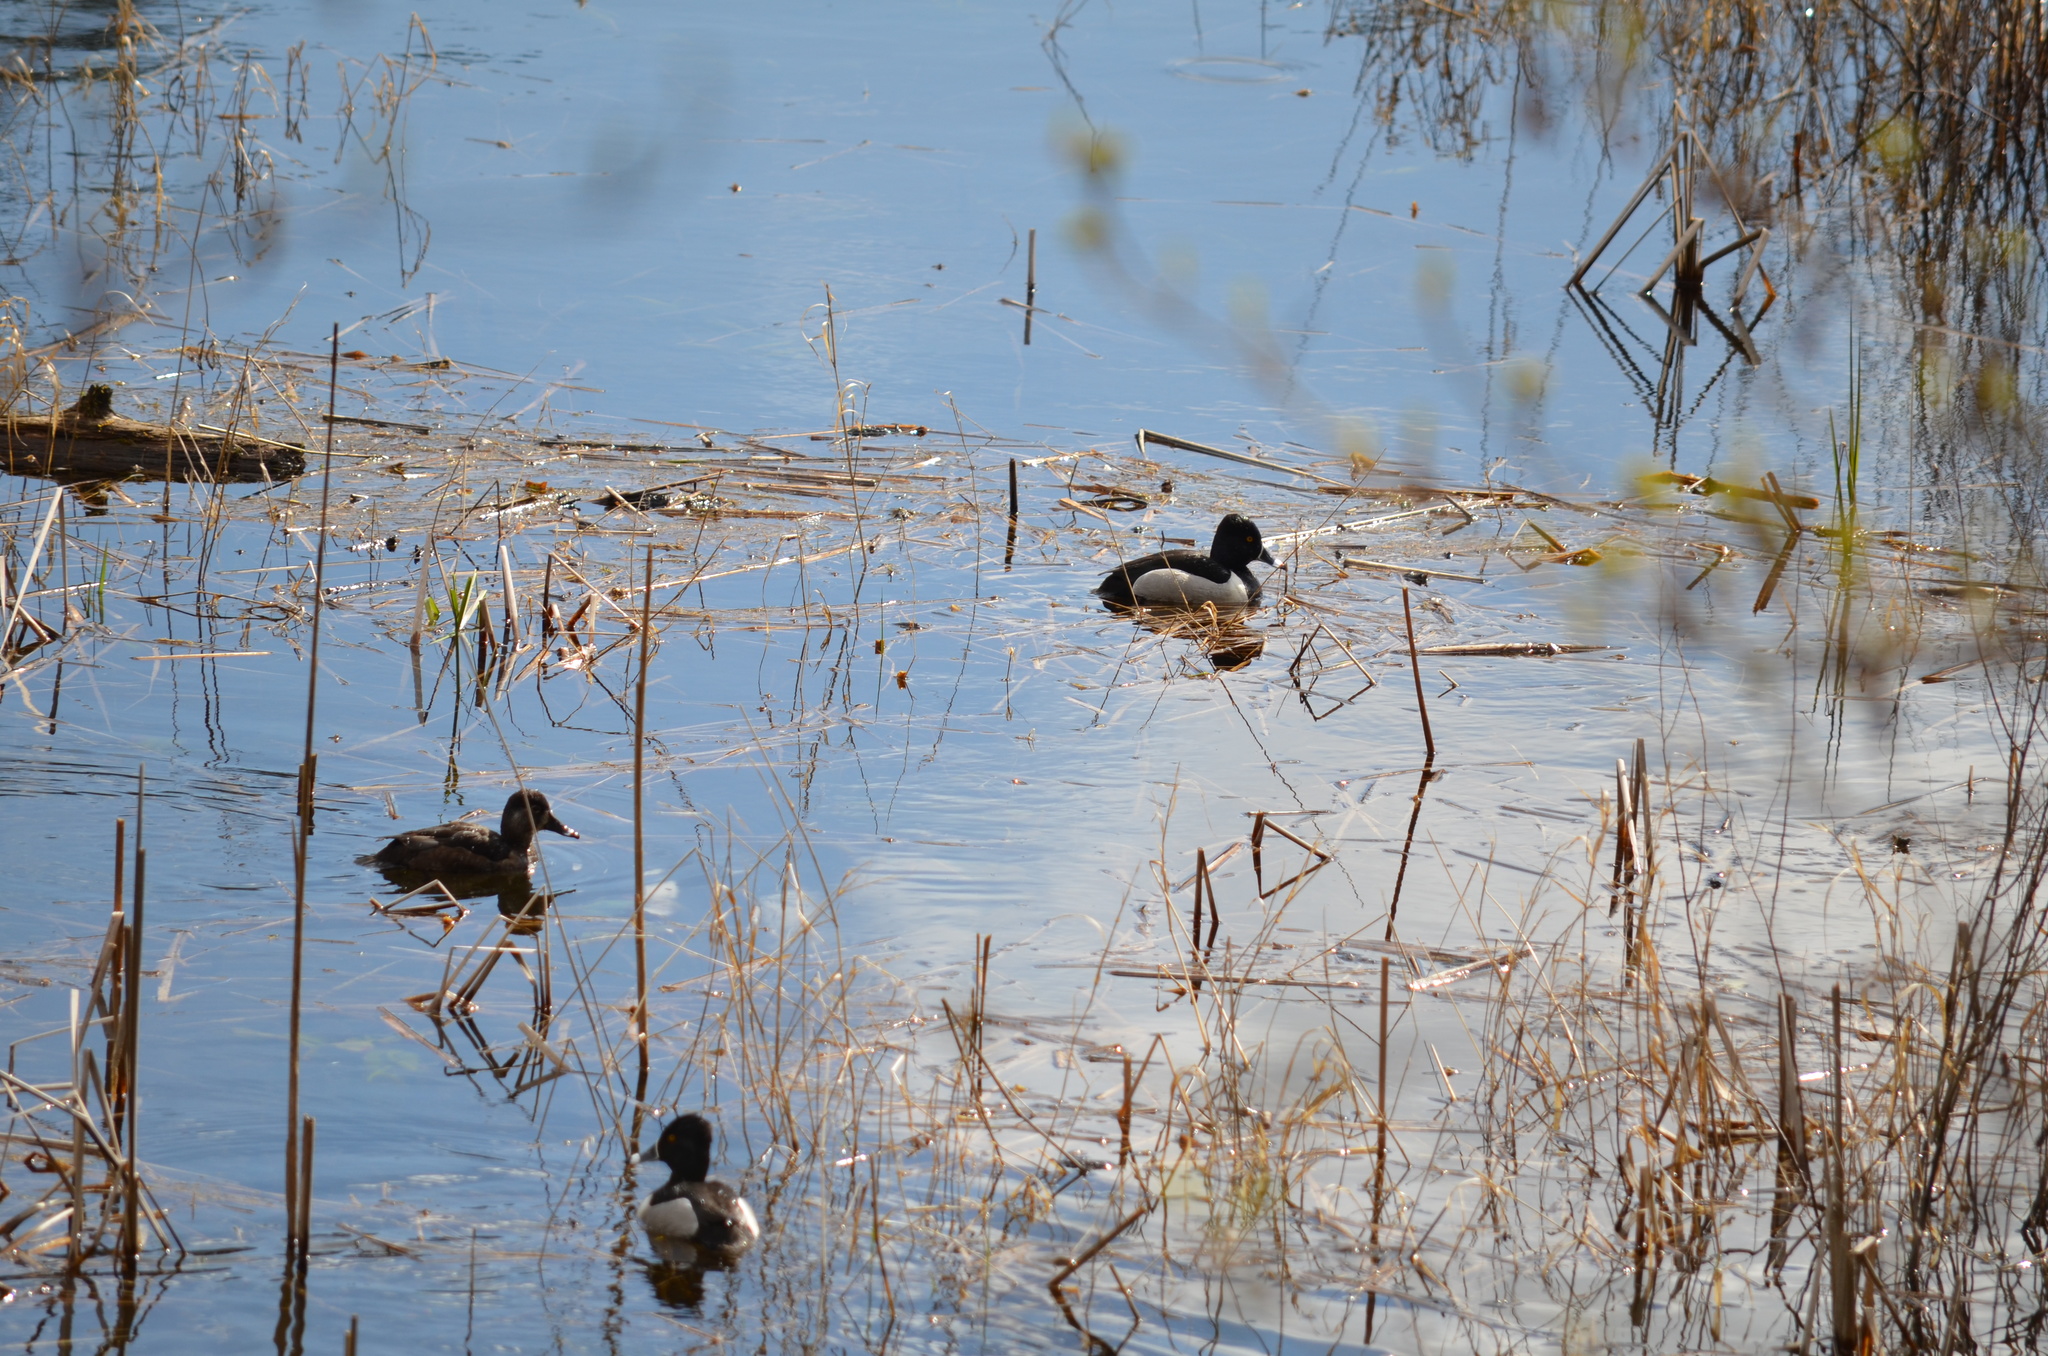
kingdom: Animalia
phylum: Chordata
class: Aves
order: Anseriformes
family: Anatidae
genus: Aythya
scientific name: Aythya collaris
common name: Ring-necked duck
